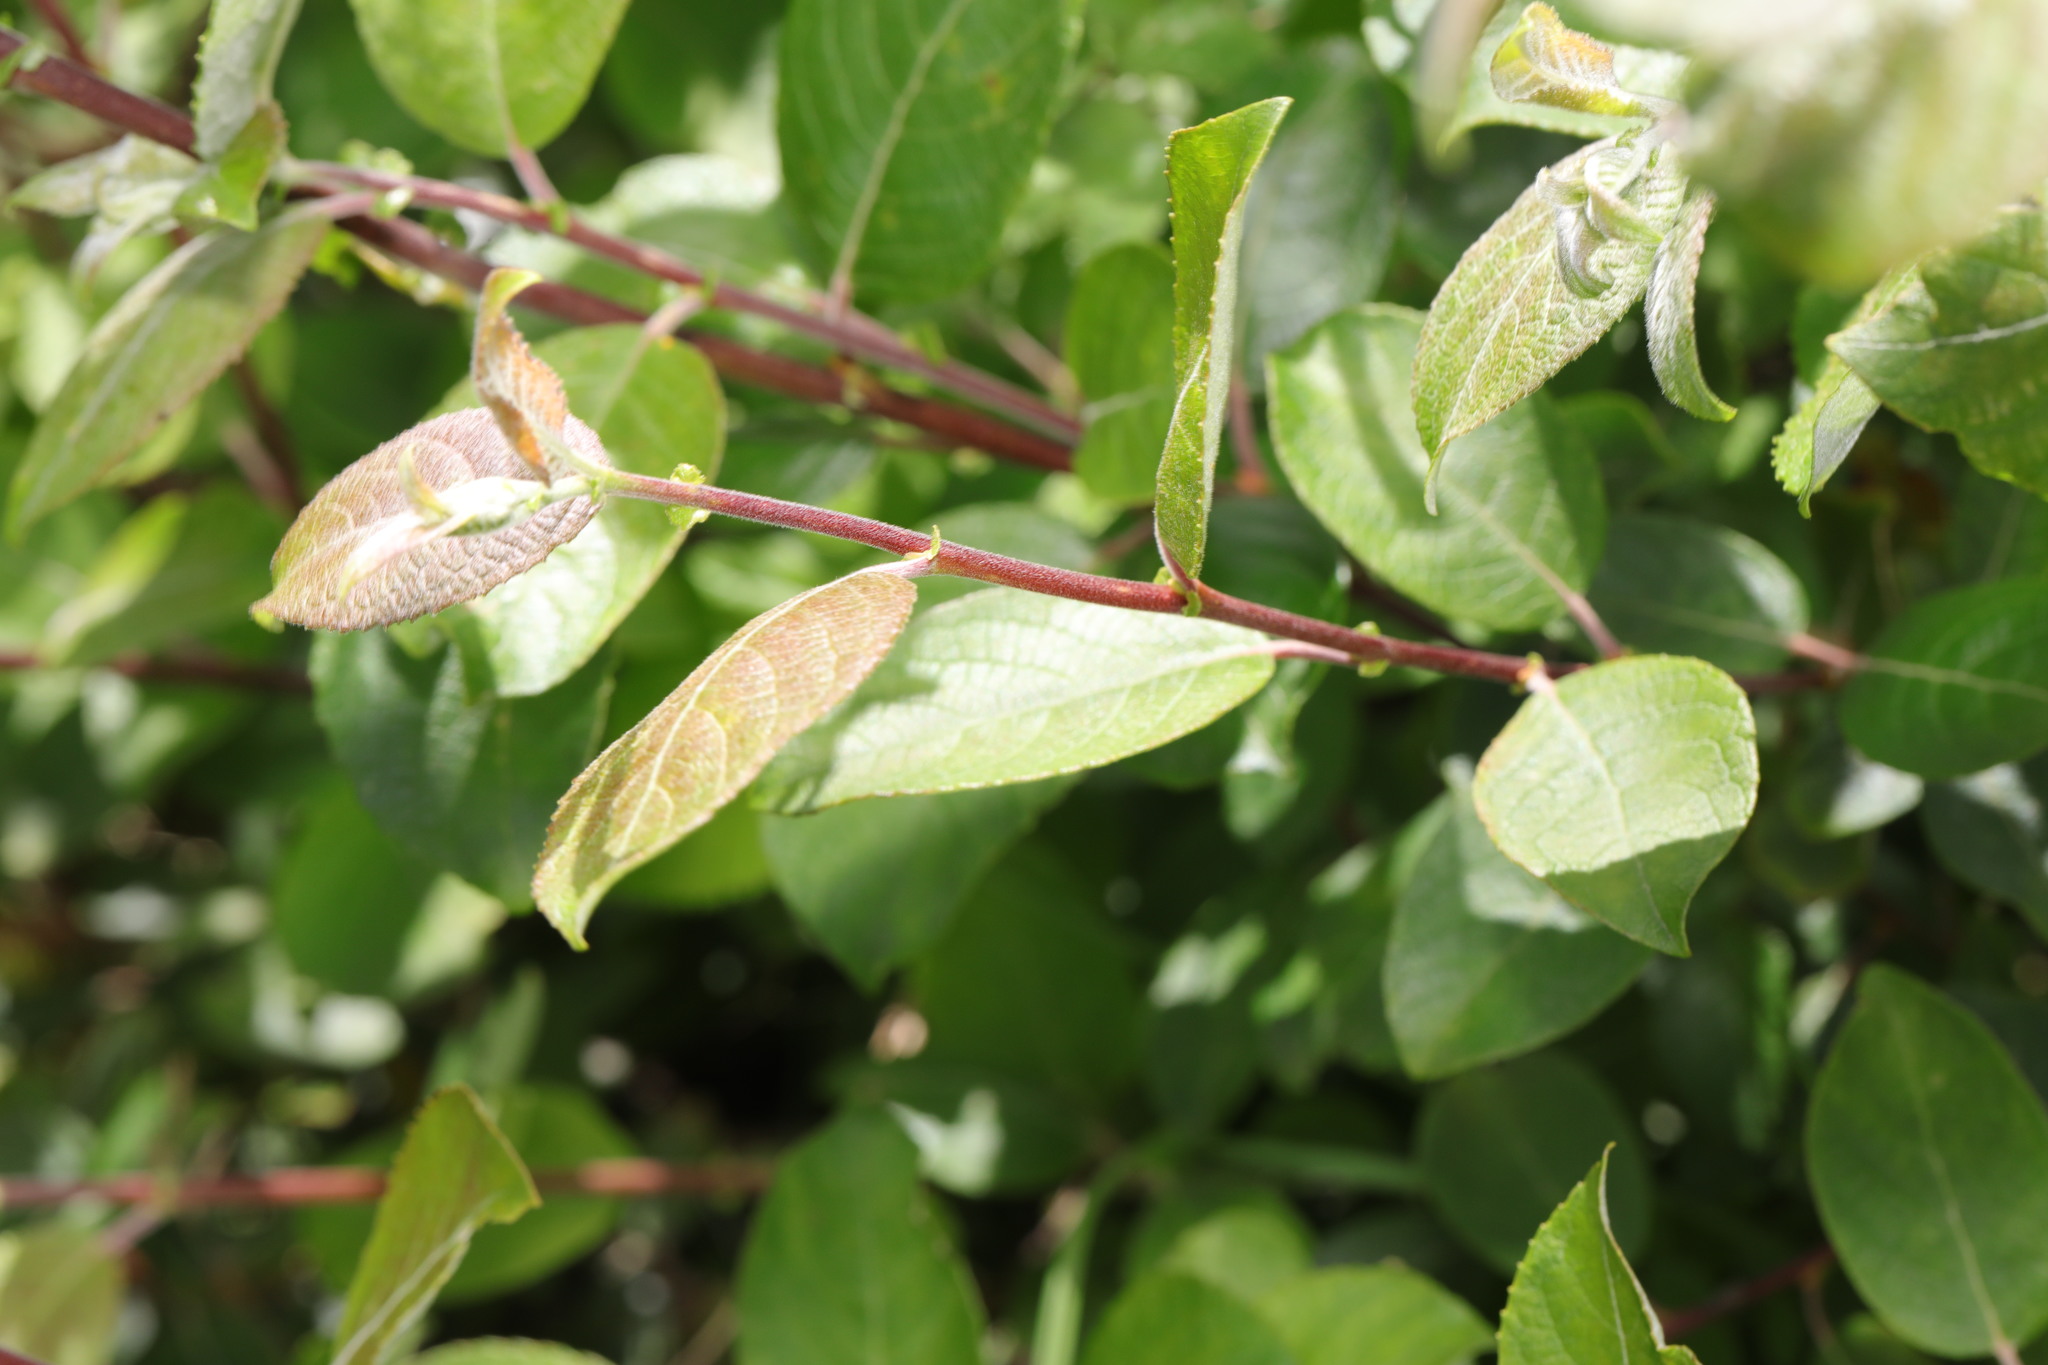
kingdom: Plantae
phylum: Tracheophyta
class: Magnoliopsida
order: Malpighiales
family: Salicaceae
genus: Salix
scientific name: Salix caprea
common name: Goat willow
